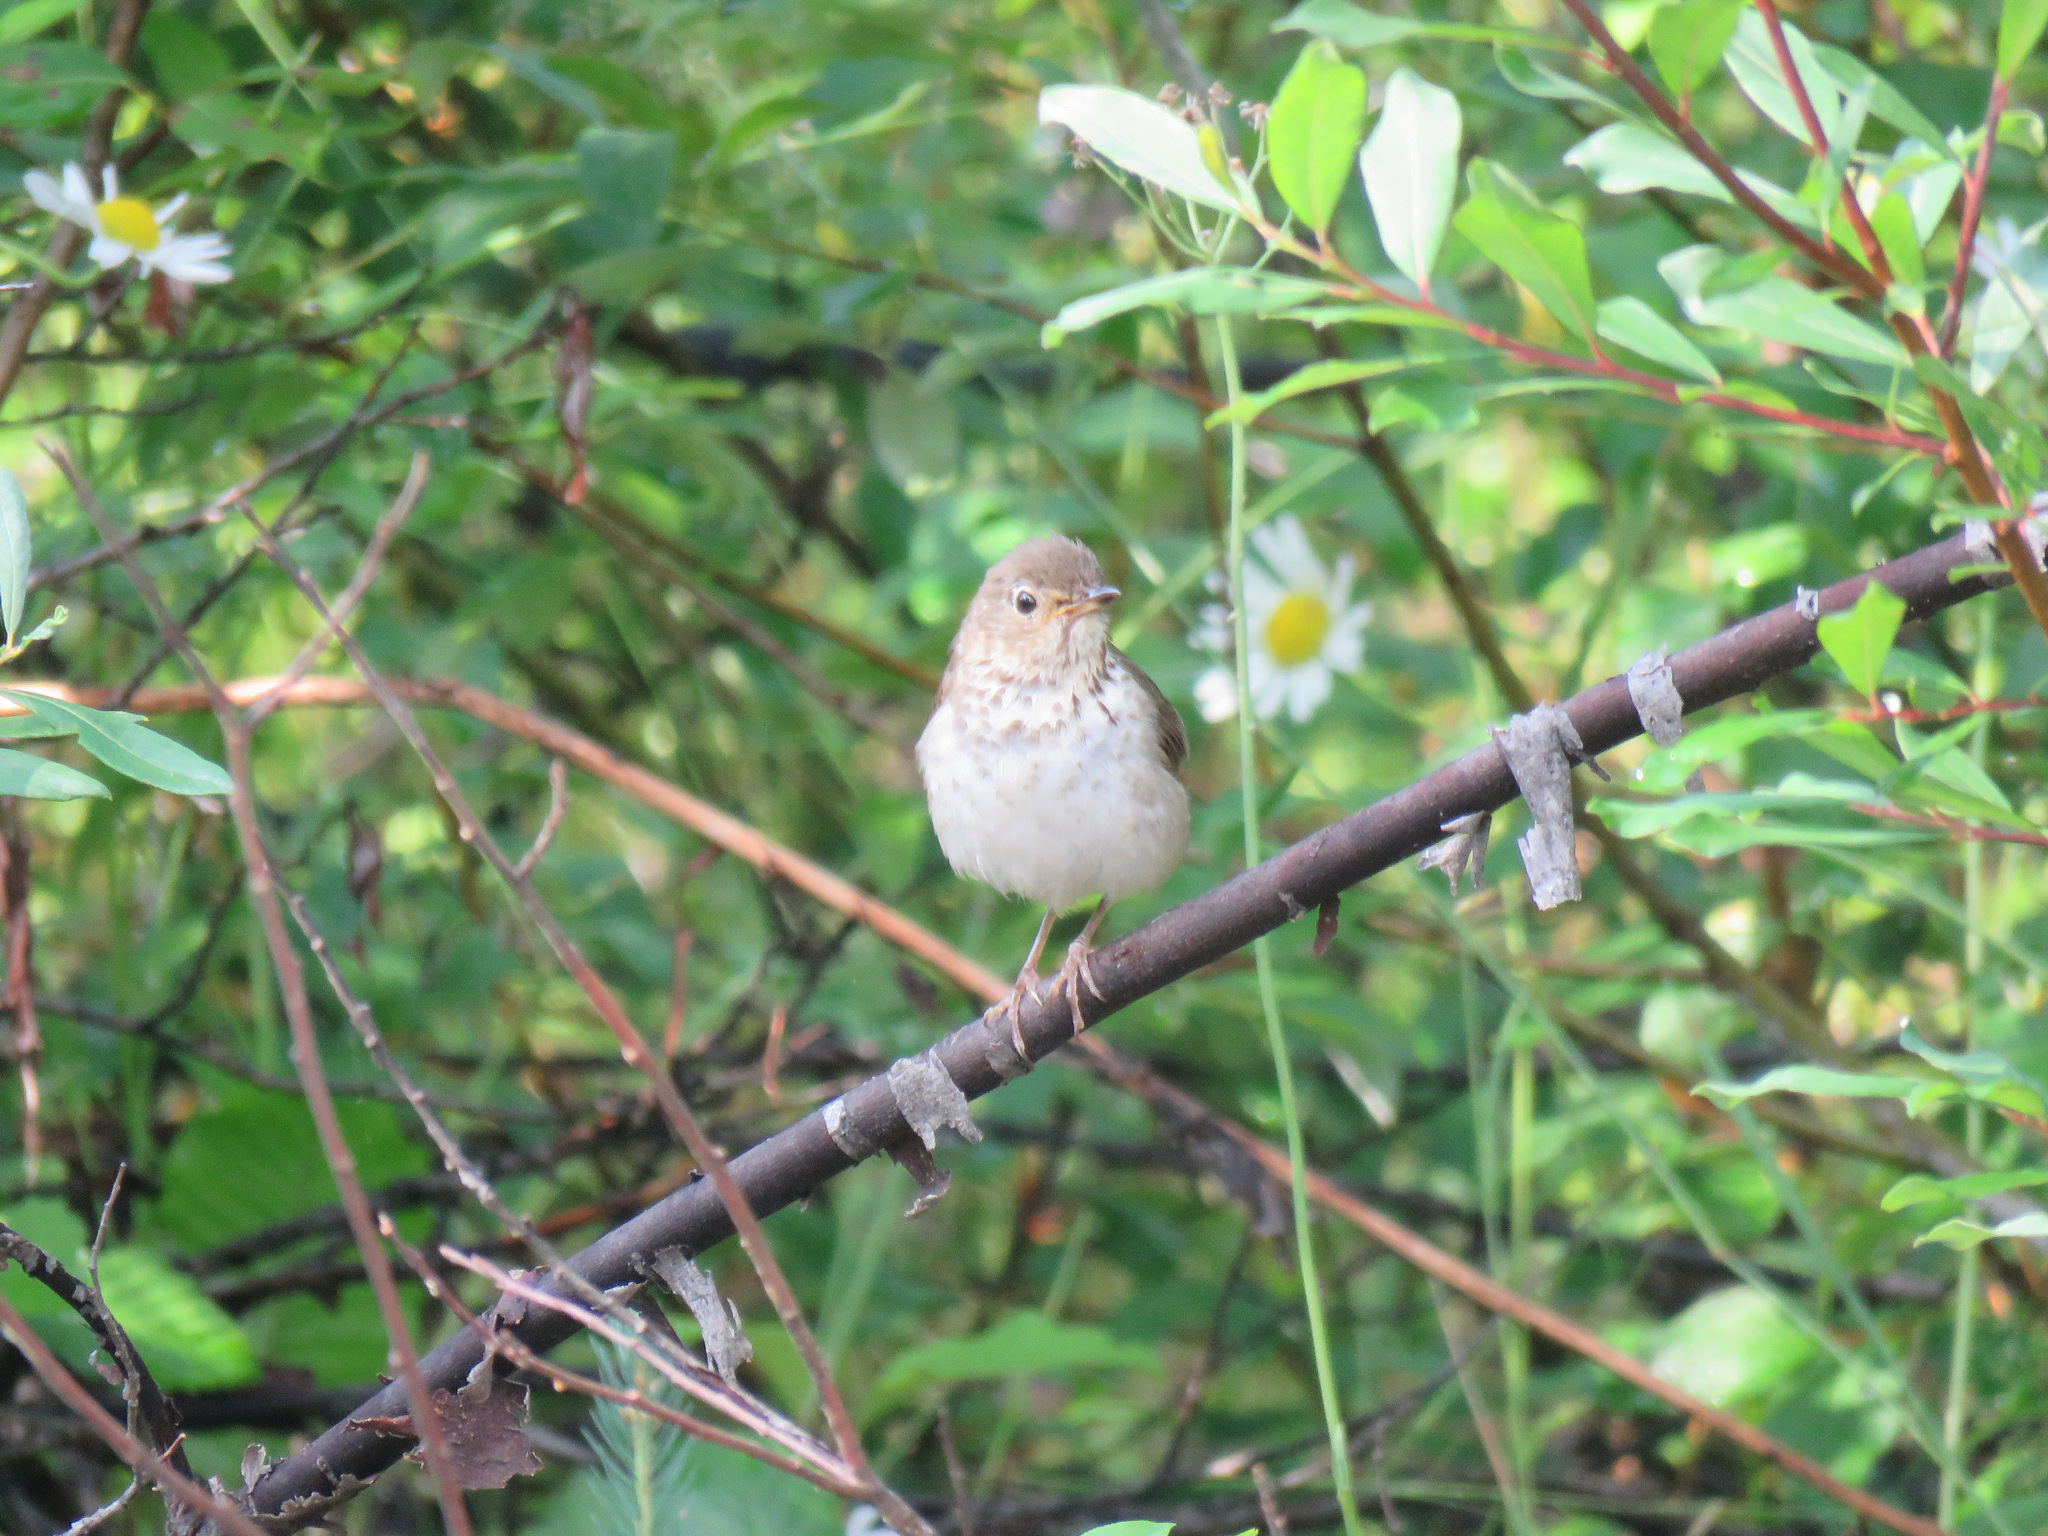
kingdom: Animalia
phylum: Chordata
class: Aves
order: Passeriformes
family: Turdidae
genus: Catharus
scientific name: Catharus ustulatus
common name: Swainson's thrush
